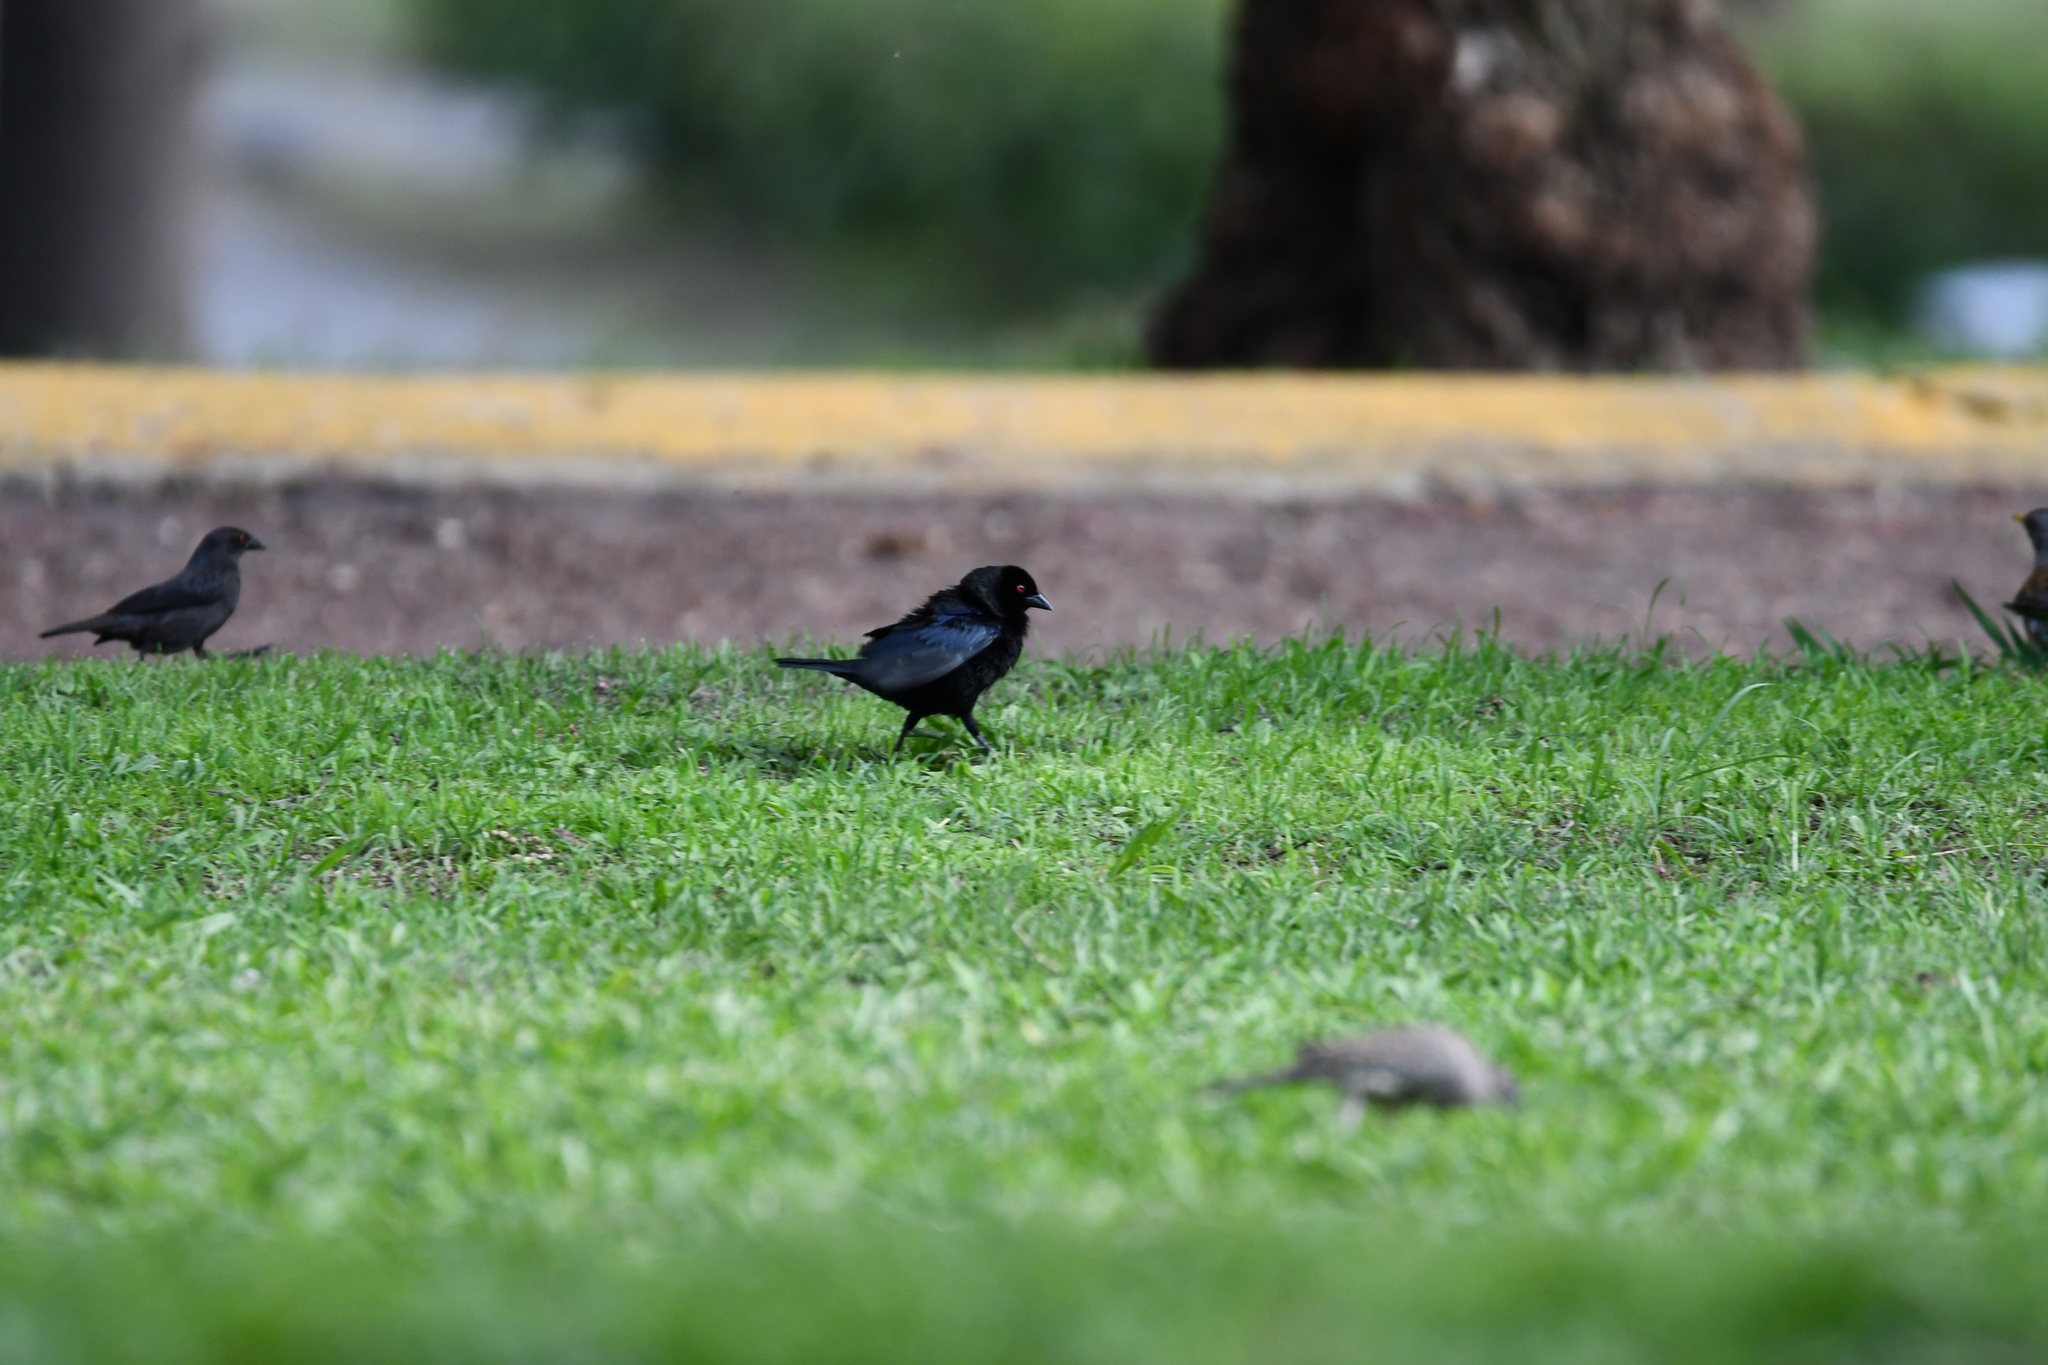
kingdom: Animalia
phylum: Chordata
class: Aves
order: Passeriformes
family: Icteridae
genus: Molothrus
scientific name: Molothrus aeneus
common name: Bronzed cowbird
